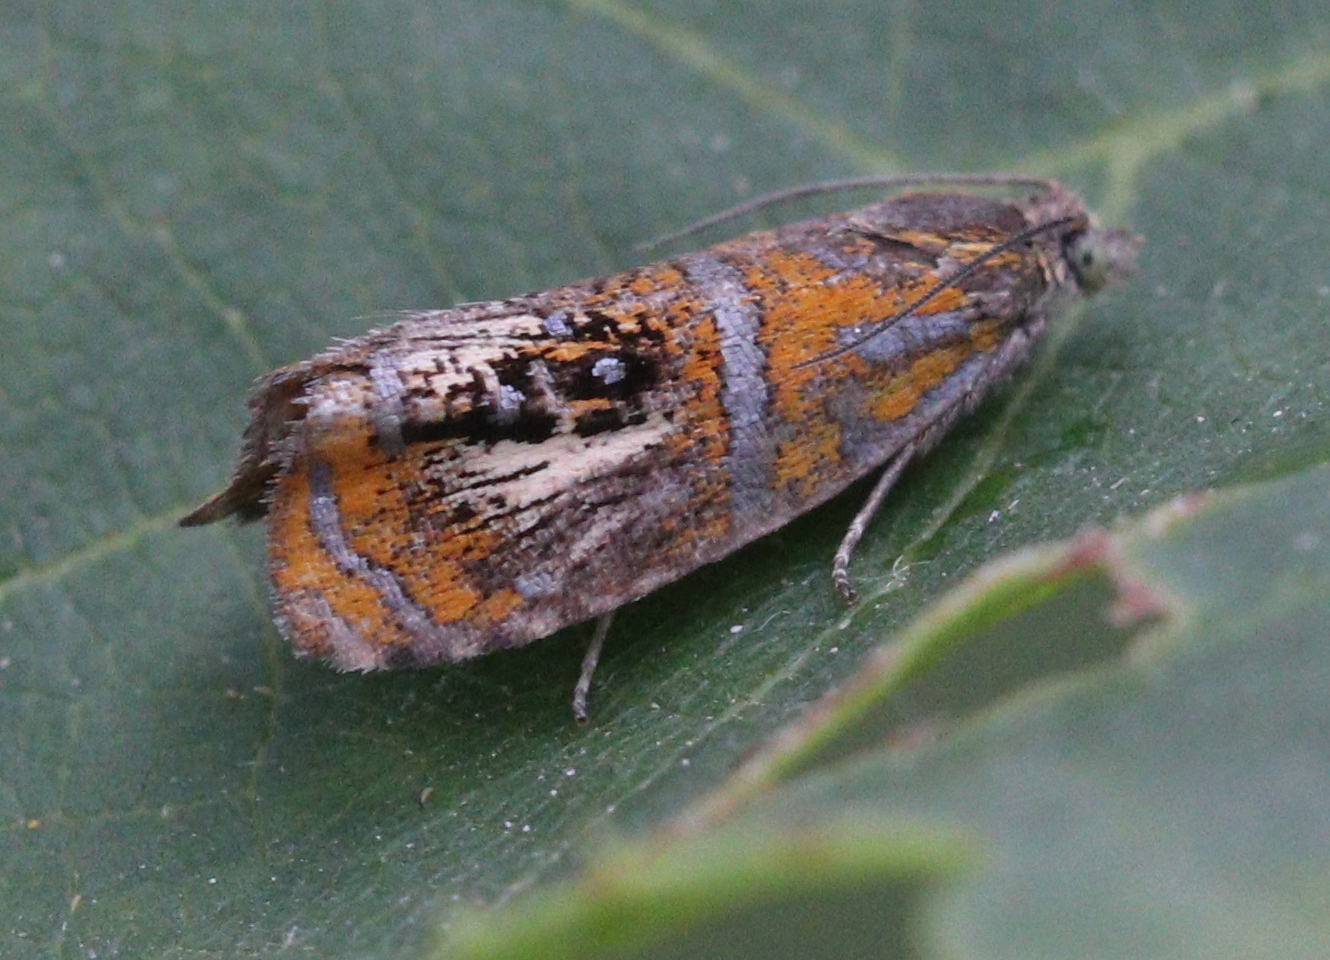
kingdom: Animalia
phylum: Arthropoda
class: Insecta
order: Lepidoptera
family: Tortricidae
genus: Olethreutes
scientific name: Olethreutes arcuella
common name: Arched marble
